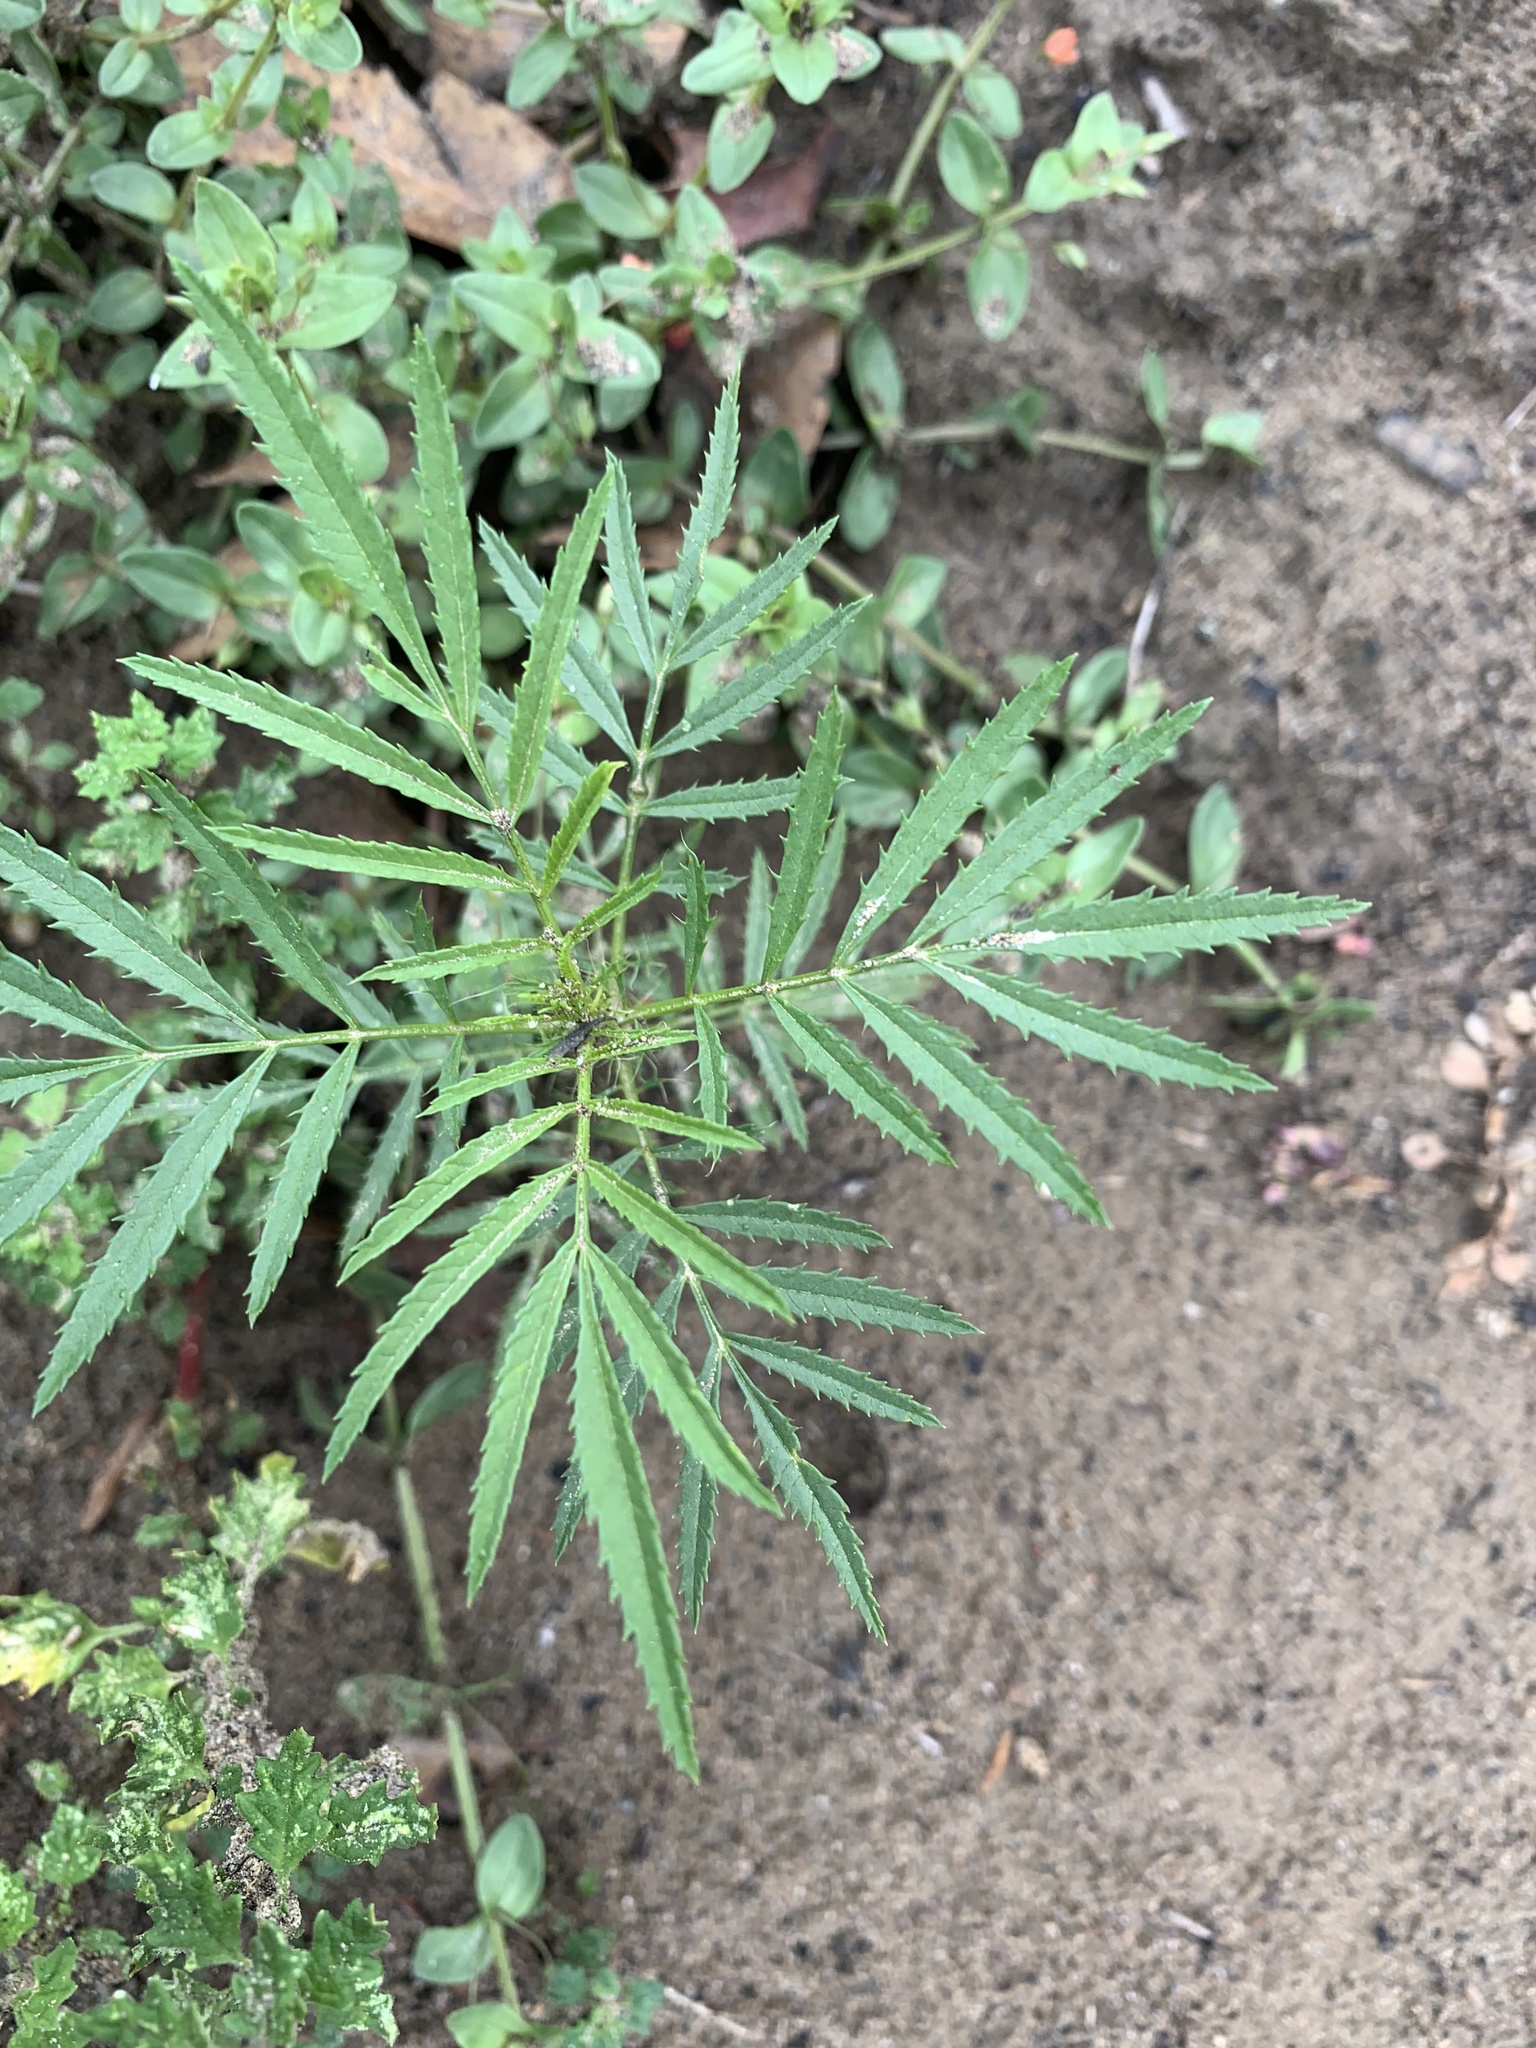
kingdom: Plantae
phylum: Tracheophyta
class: Magnoliopsida
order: Asterales
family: Asteraceae
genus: Tagetes
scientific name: Tagetes minuta
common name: Muster john henry
